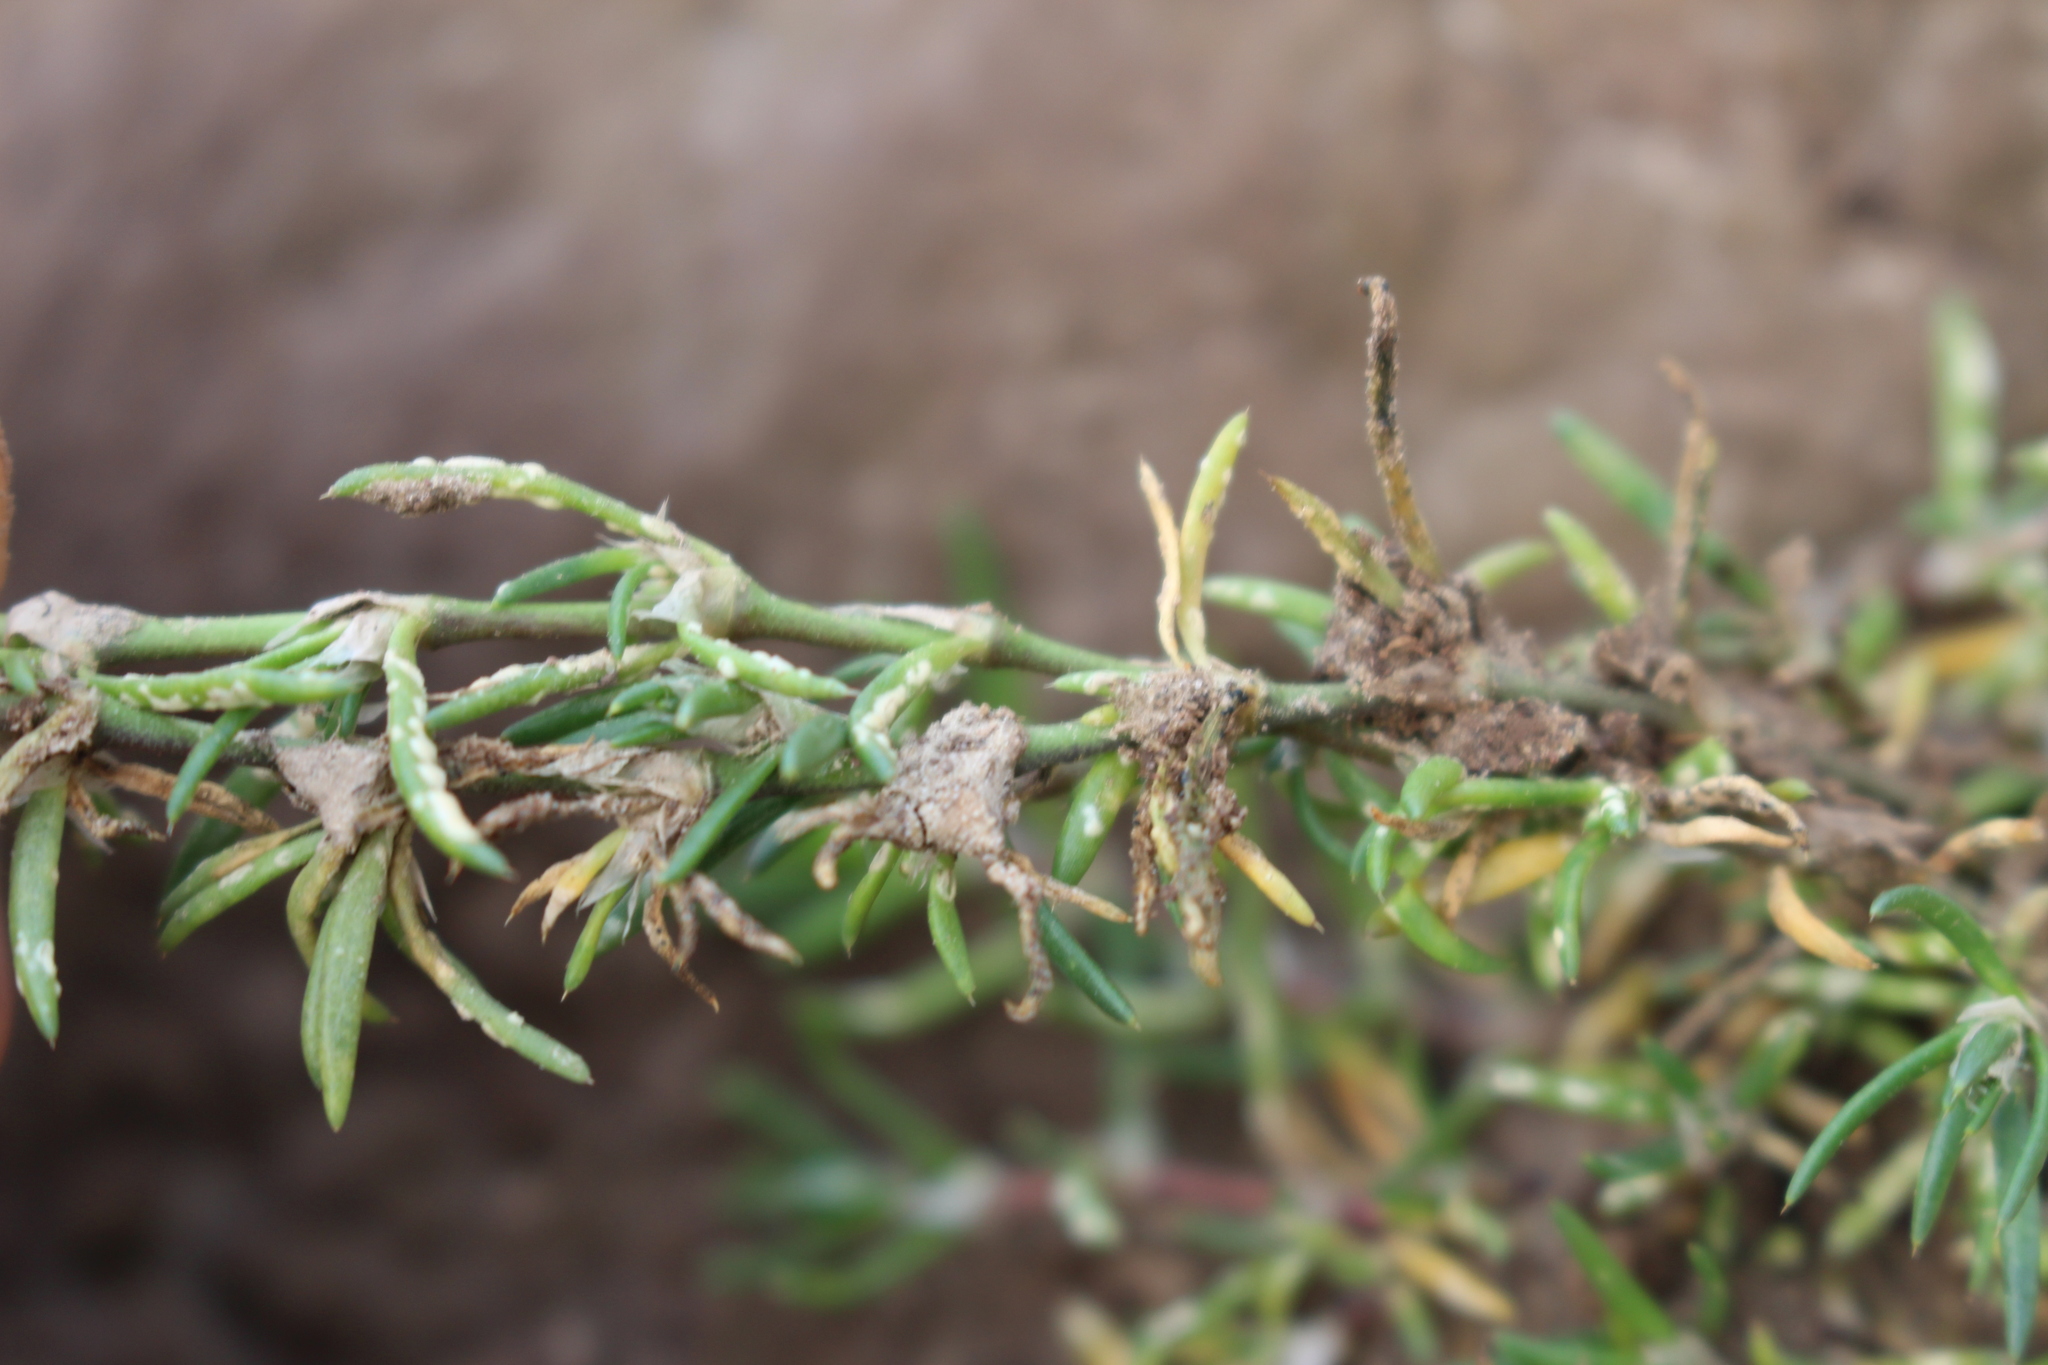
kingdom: Plantae
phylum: Tracheophyta
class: Magnoliopsida
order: Caryophyllales
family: Caryophyllaceae
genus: Spergularia
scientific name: Spergularia tasmanica
